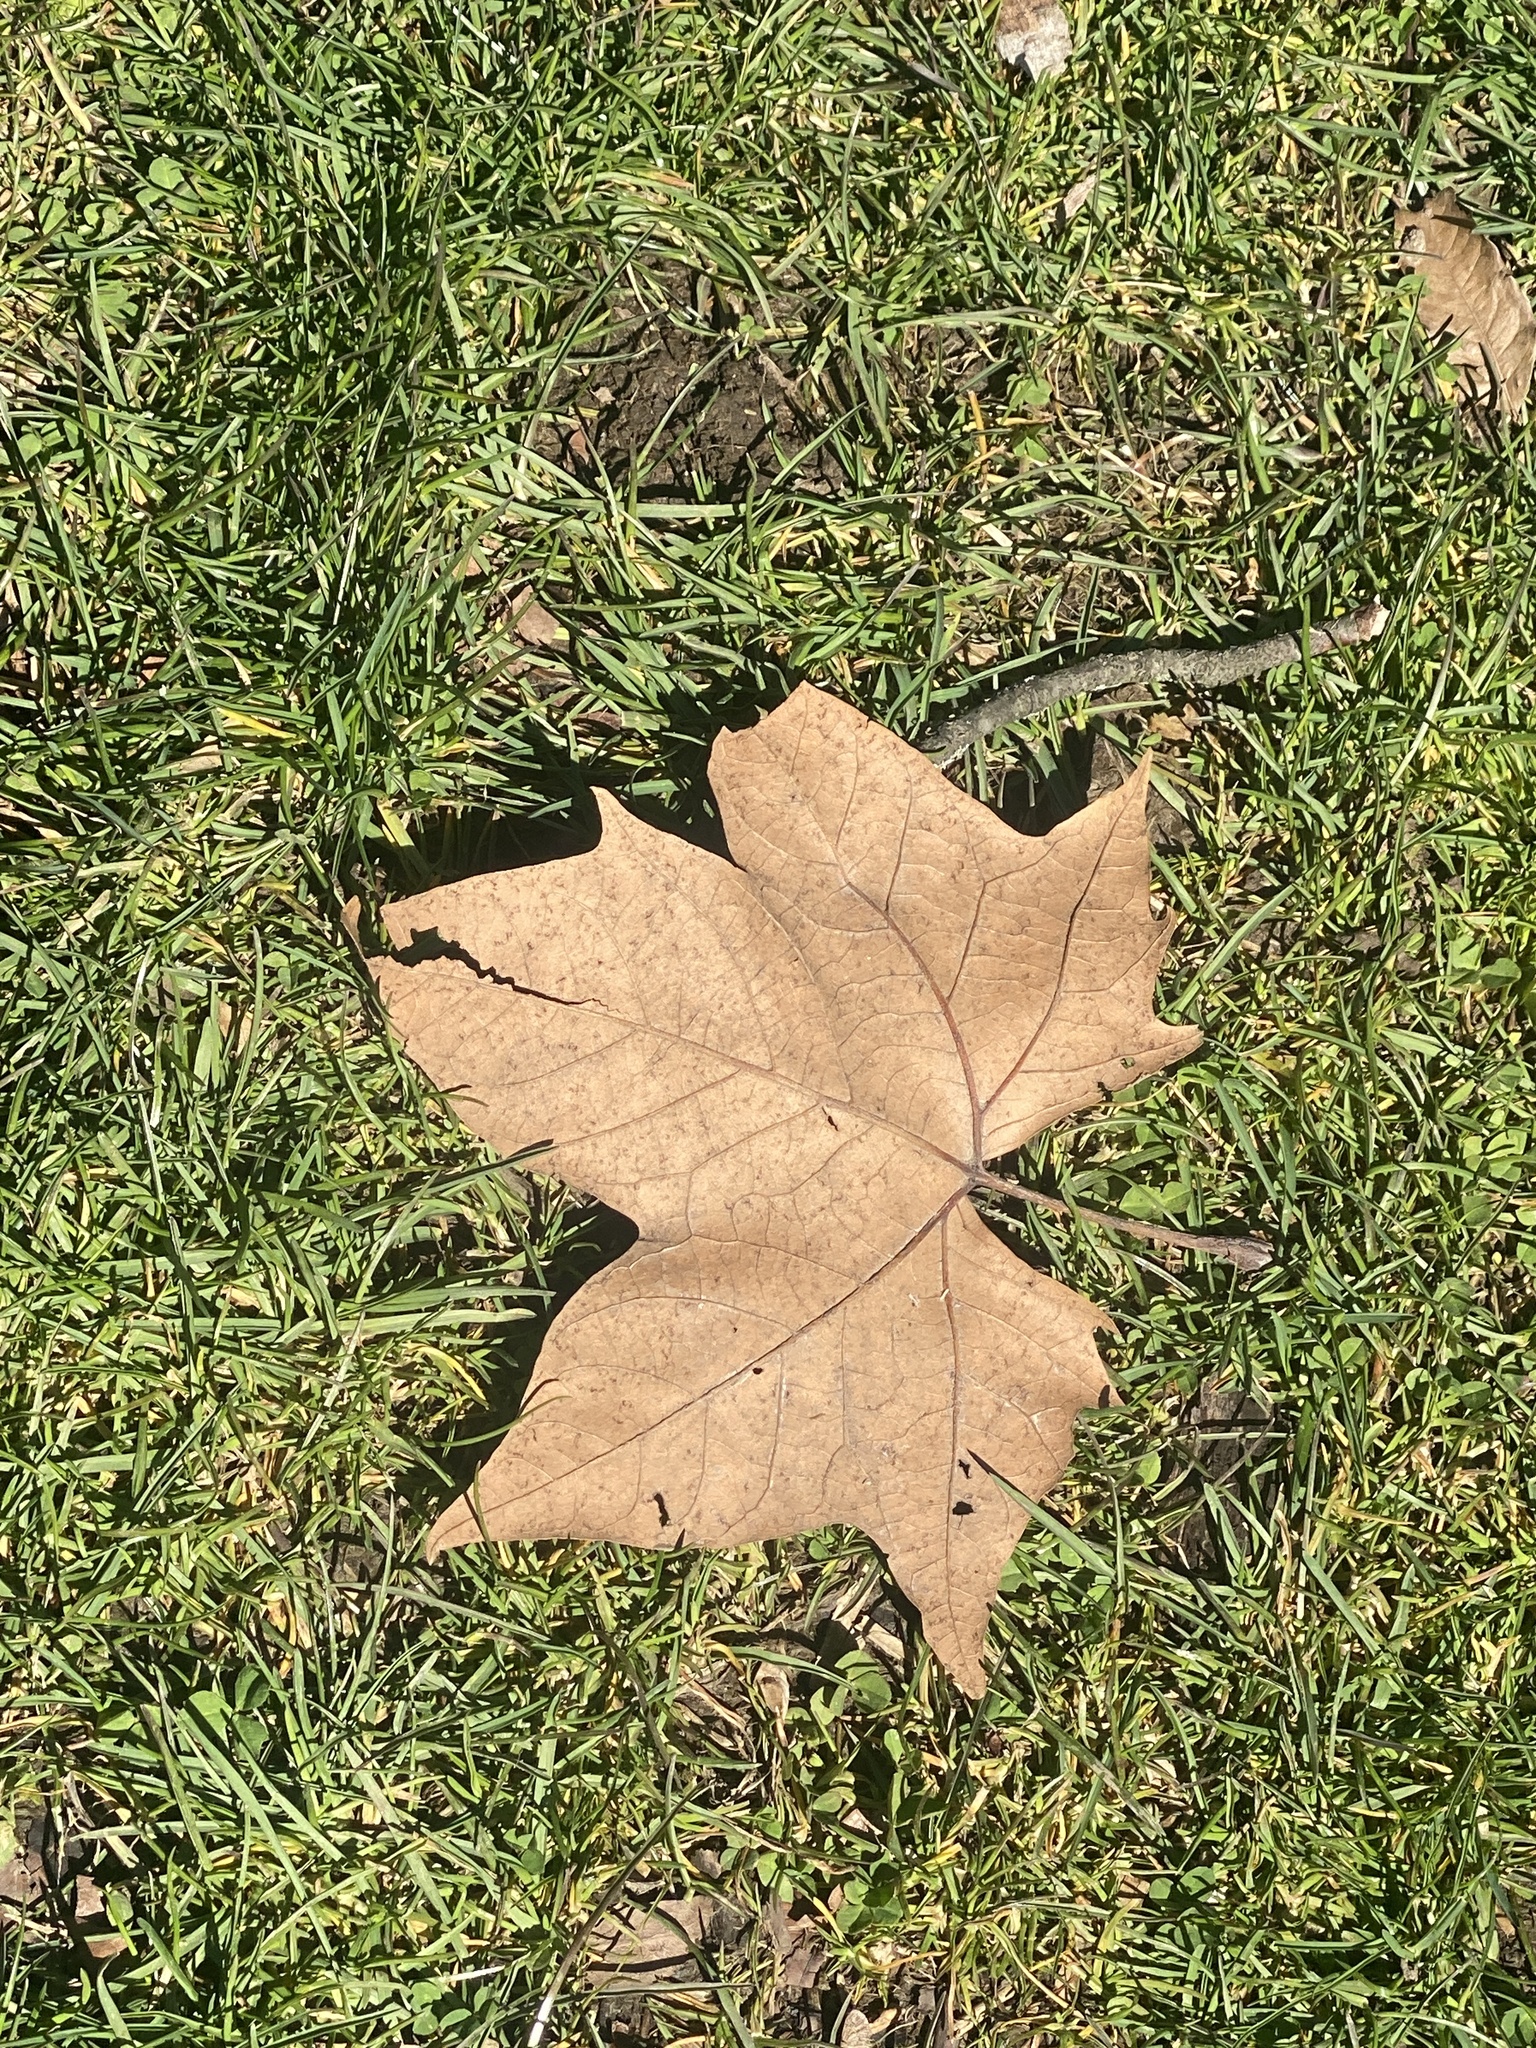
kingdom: Plantae
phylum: Tracheophyta
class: Magnoliopsida
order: Proteales
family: Platanaceae
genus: Platanus
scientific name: Platanus occidentalis
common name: American sycamore
